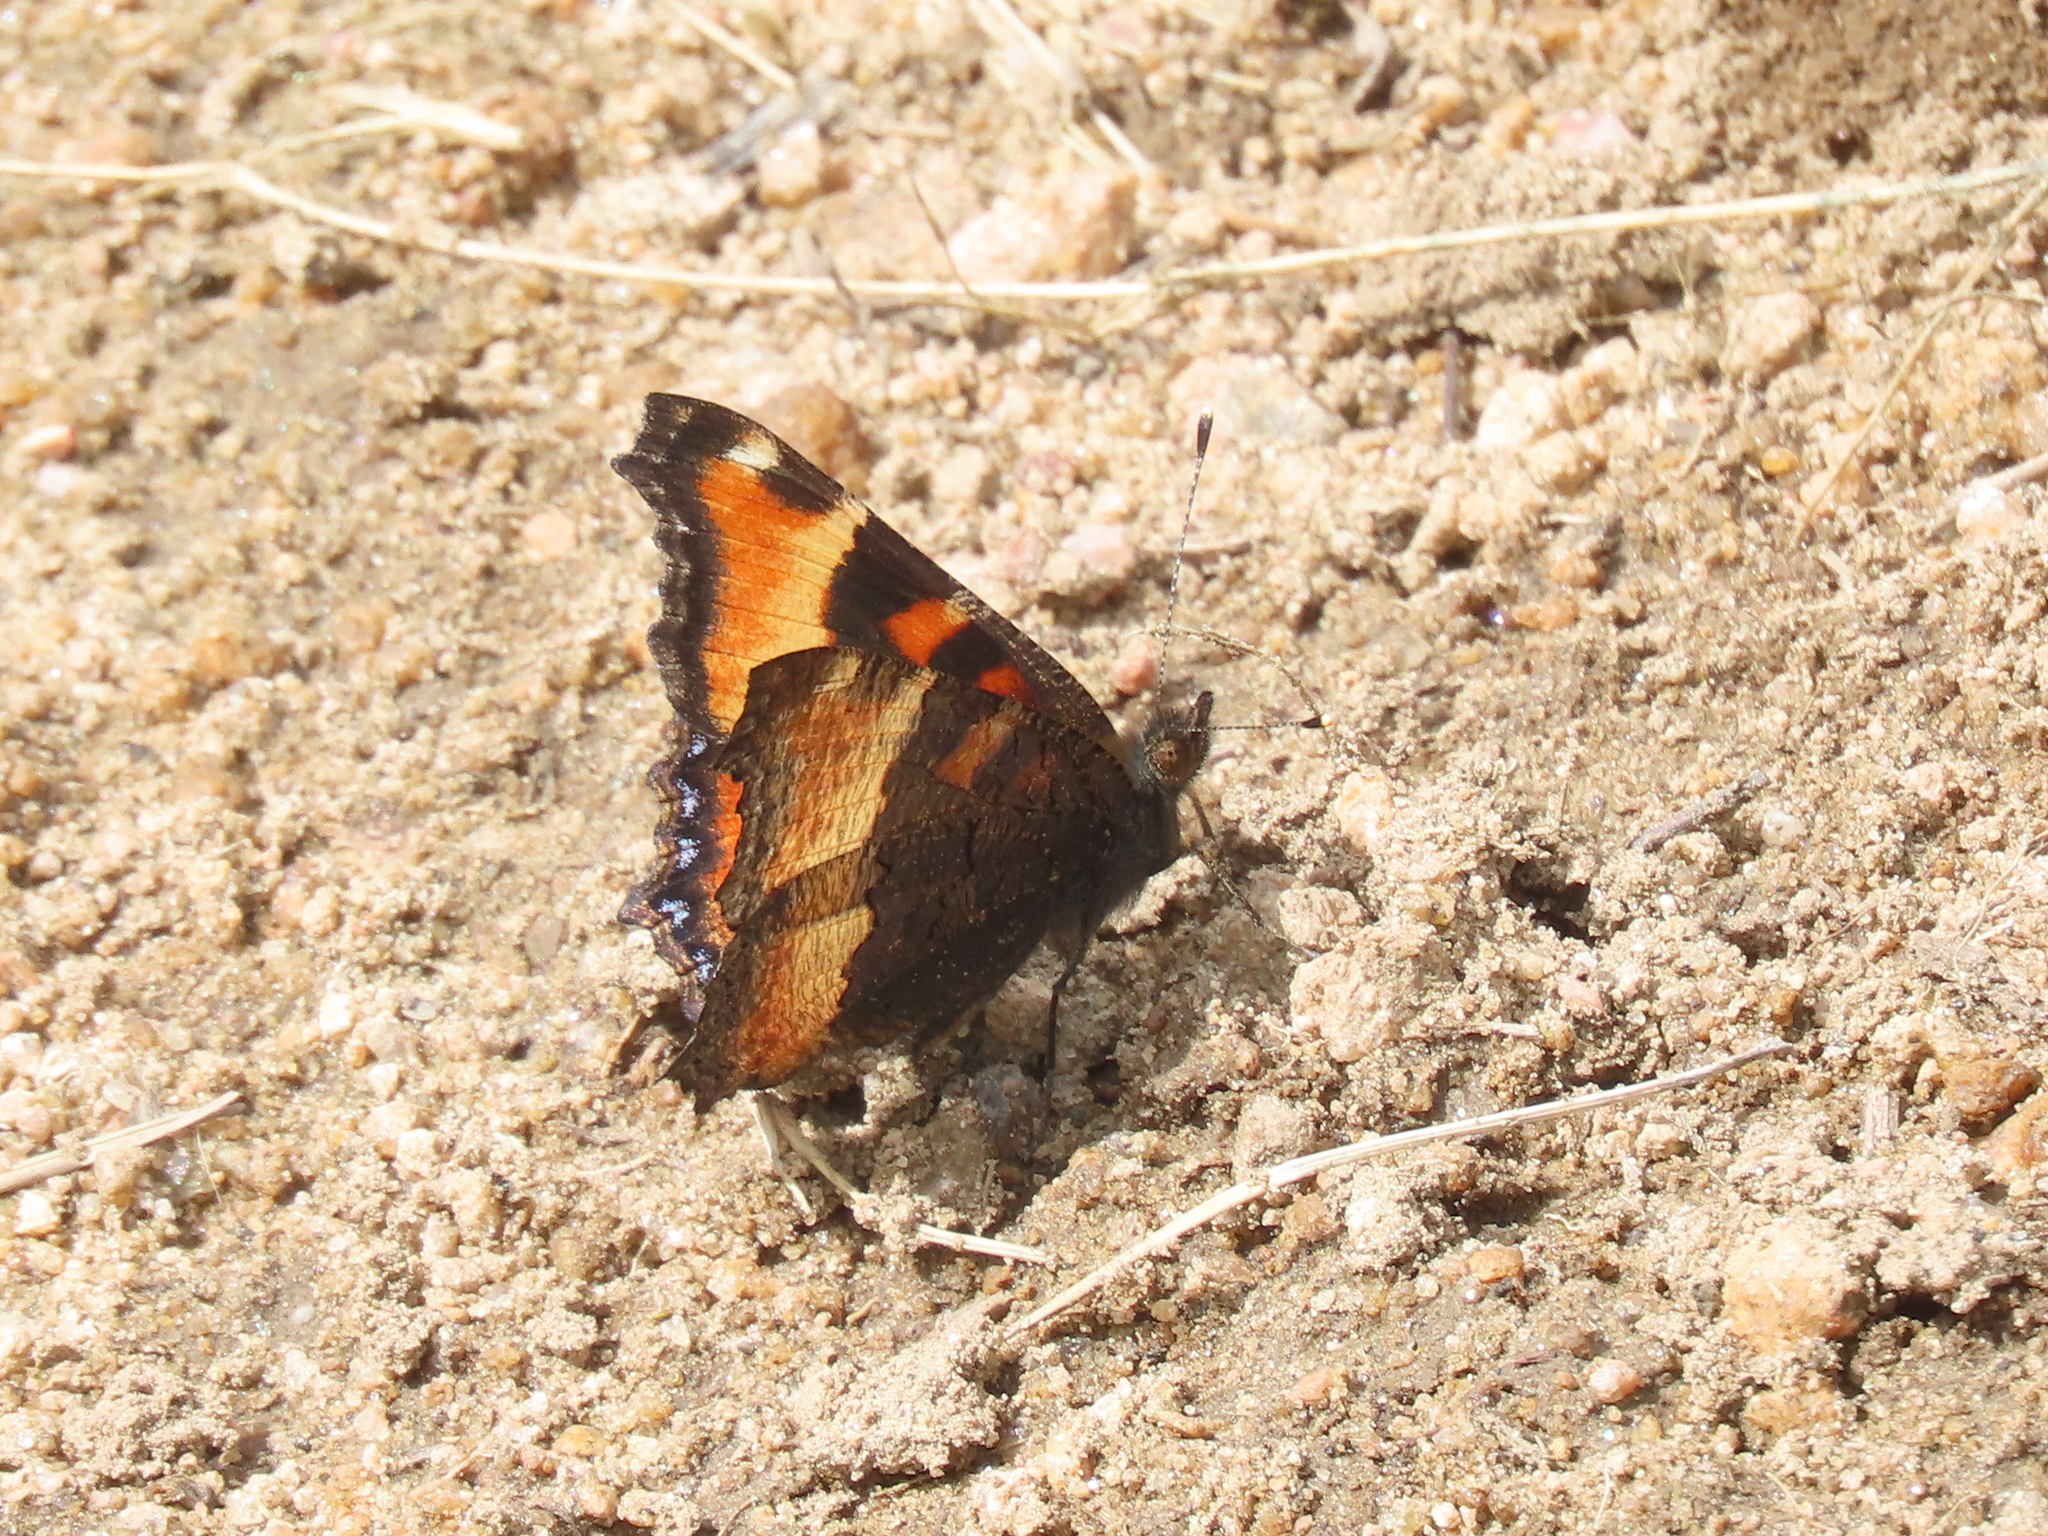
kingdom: Animalia
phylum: Arthropoda
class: Insecta
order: Lepidoptera
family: Nymphalidae
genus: Aglais
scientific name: Aglais milberti
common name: Milbert's tortoiseshell
